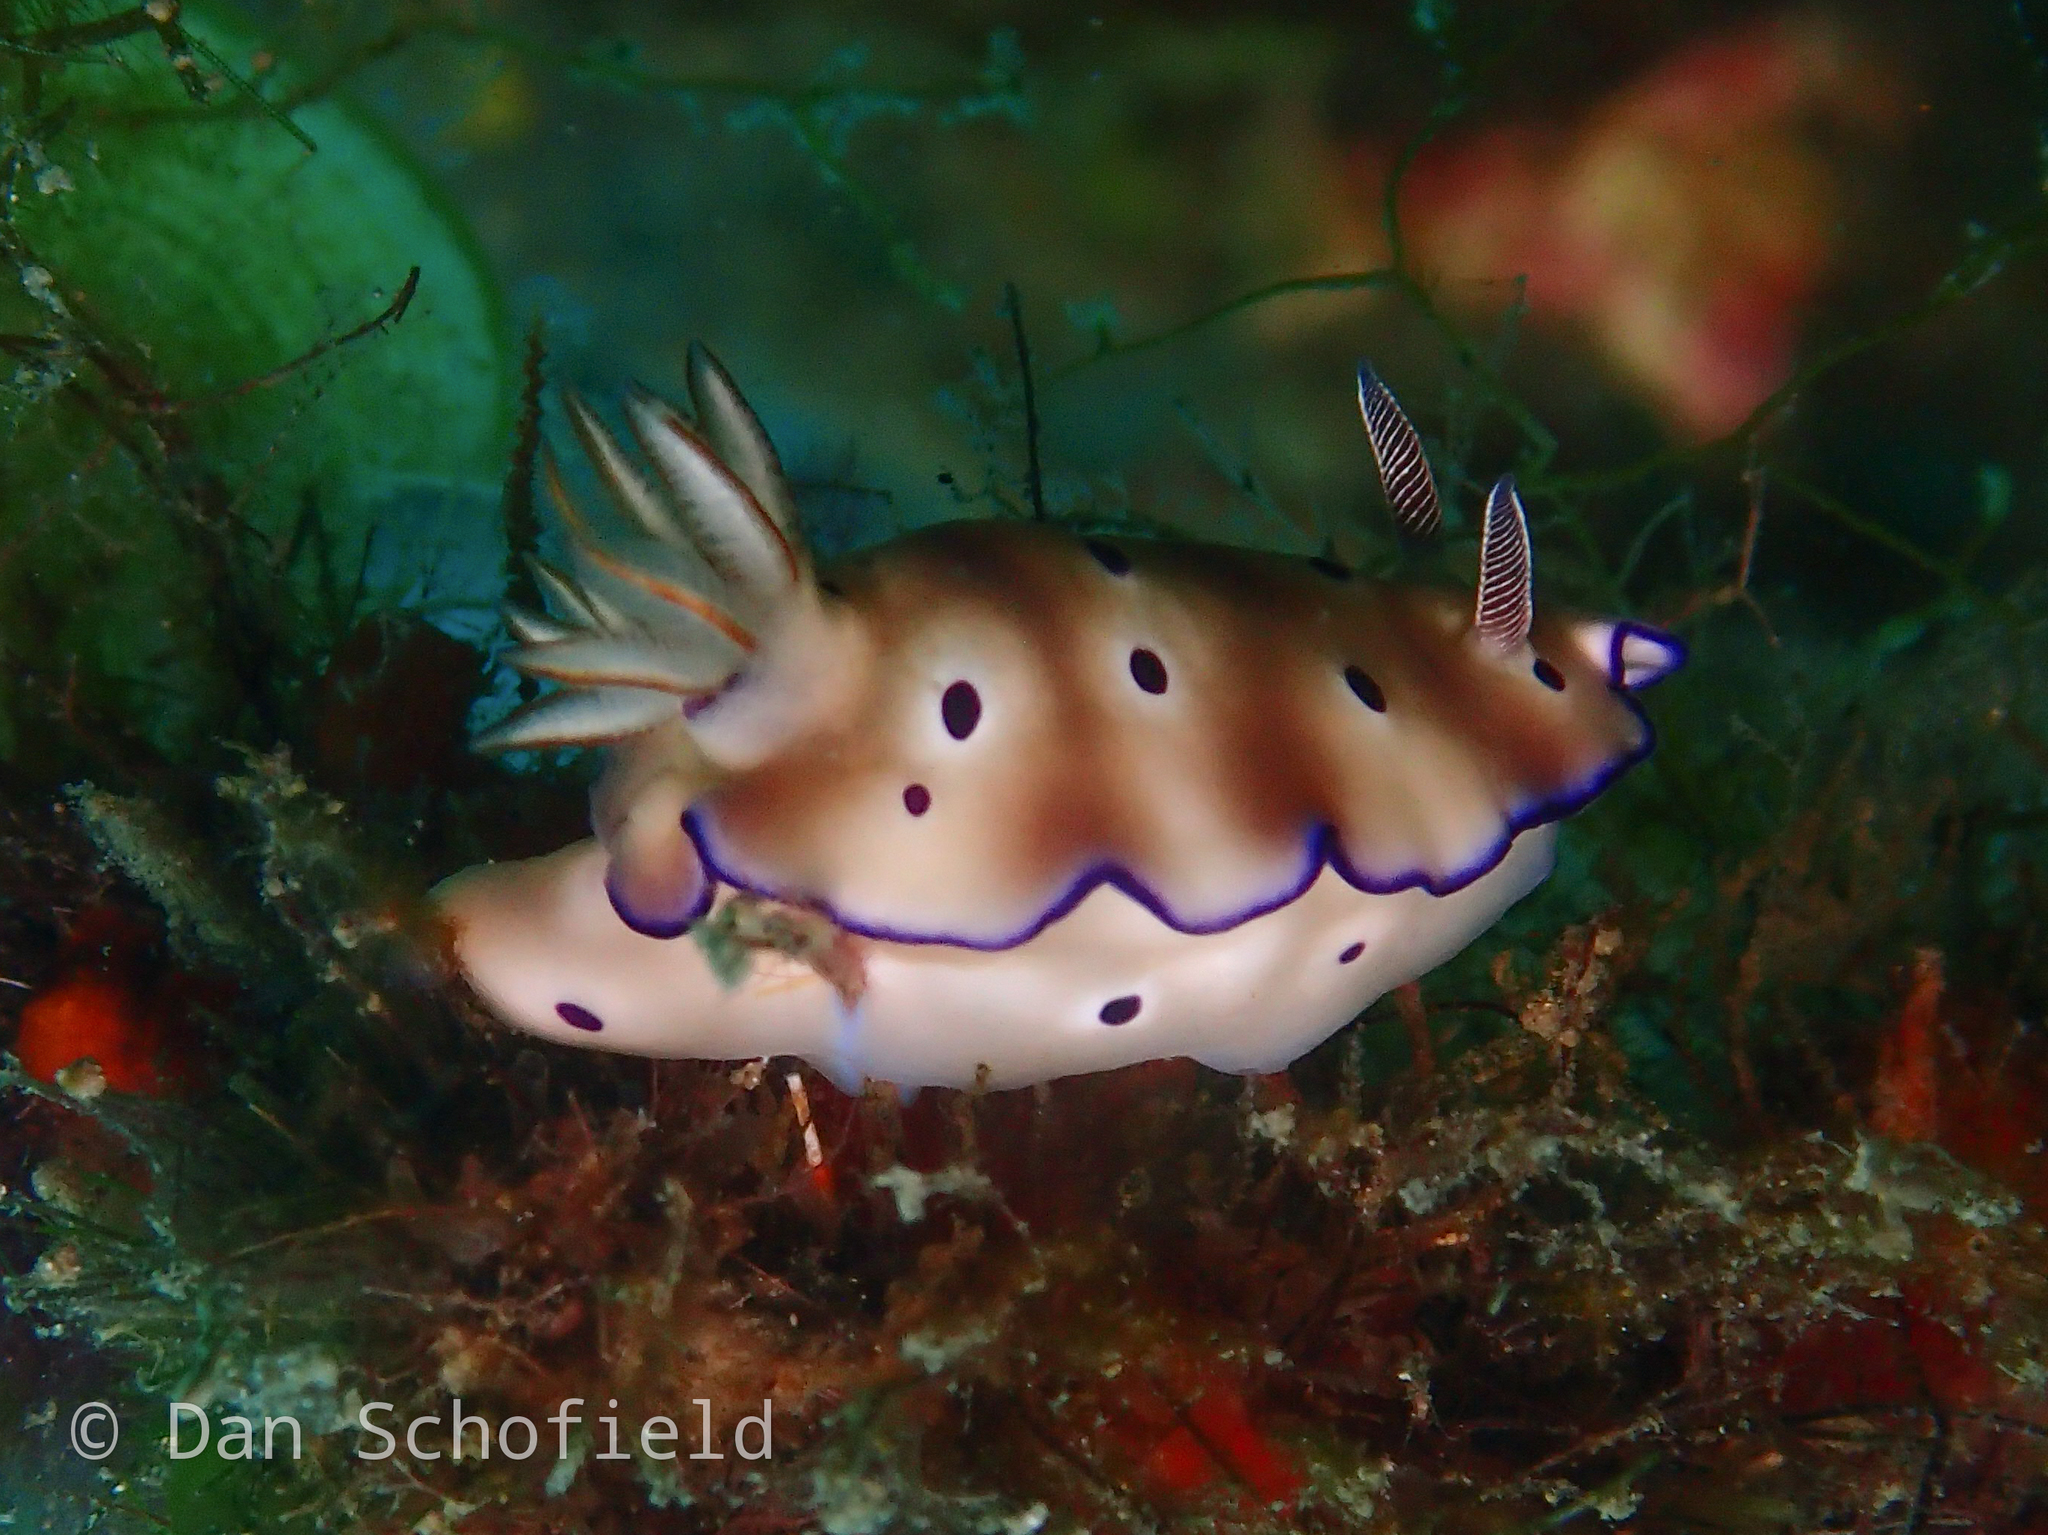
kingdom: Animalia
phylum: Mollusca
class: Gastropoda
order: Nudibranchia
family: Chromodorididae
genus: Hypselodoris
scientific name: Hypselodoris tryoni
